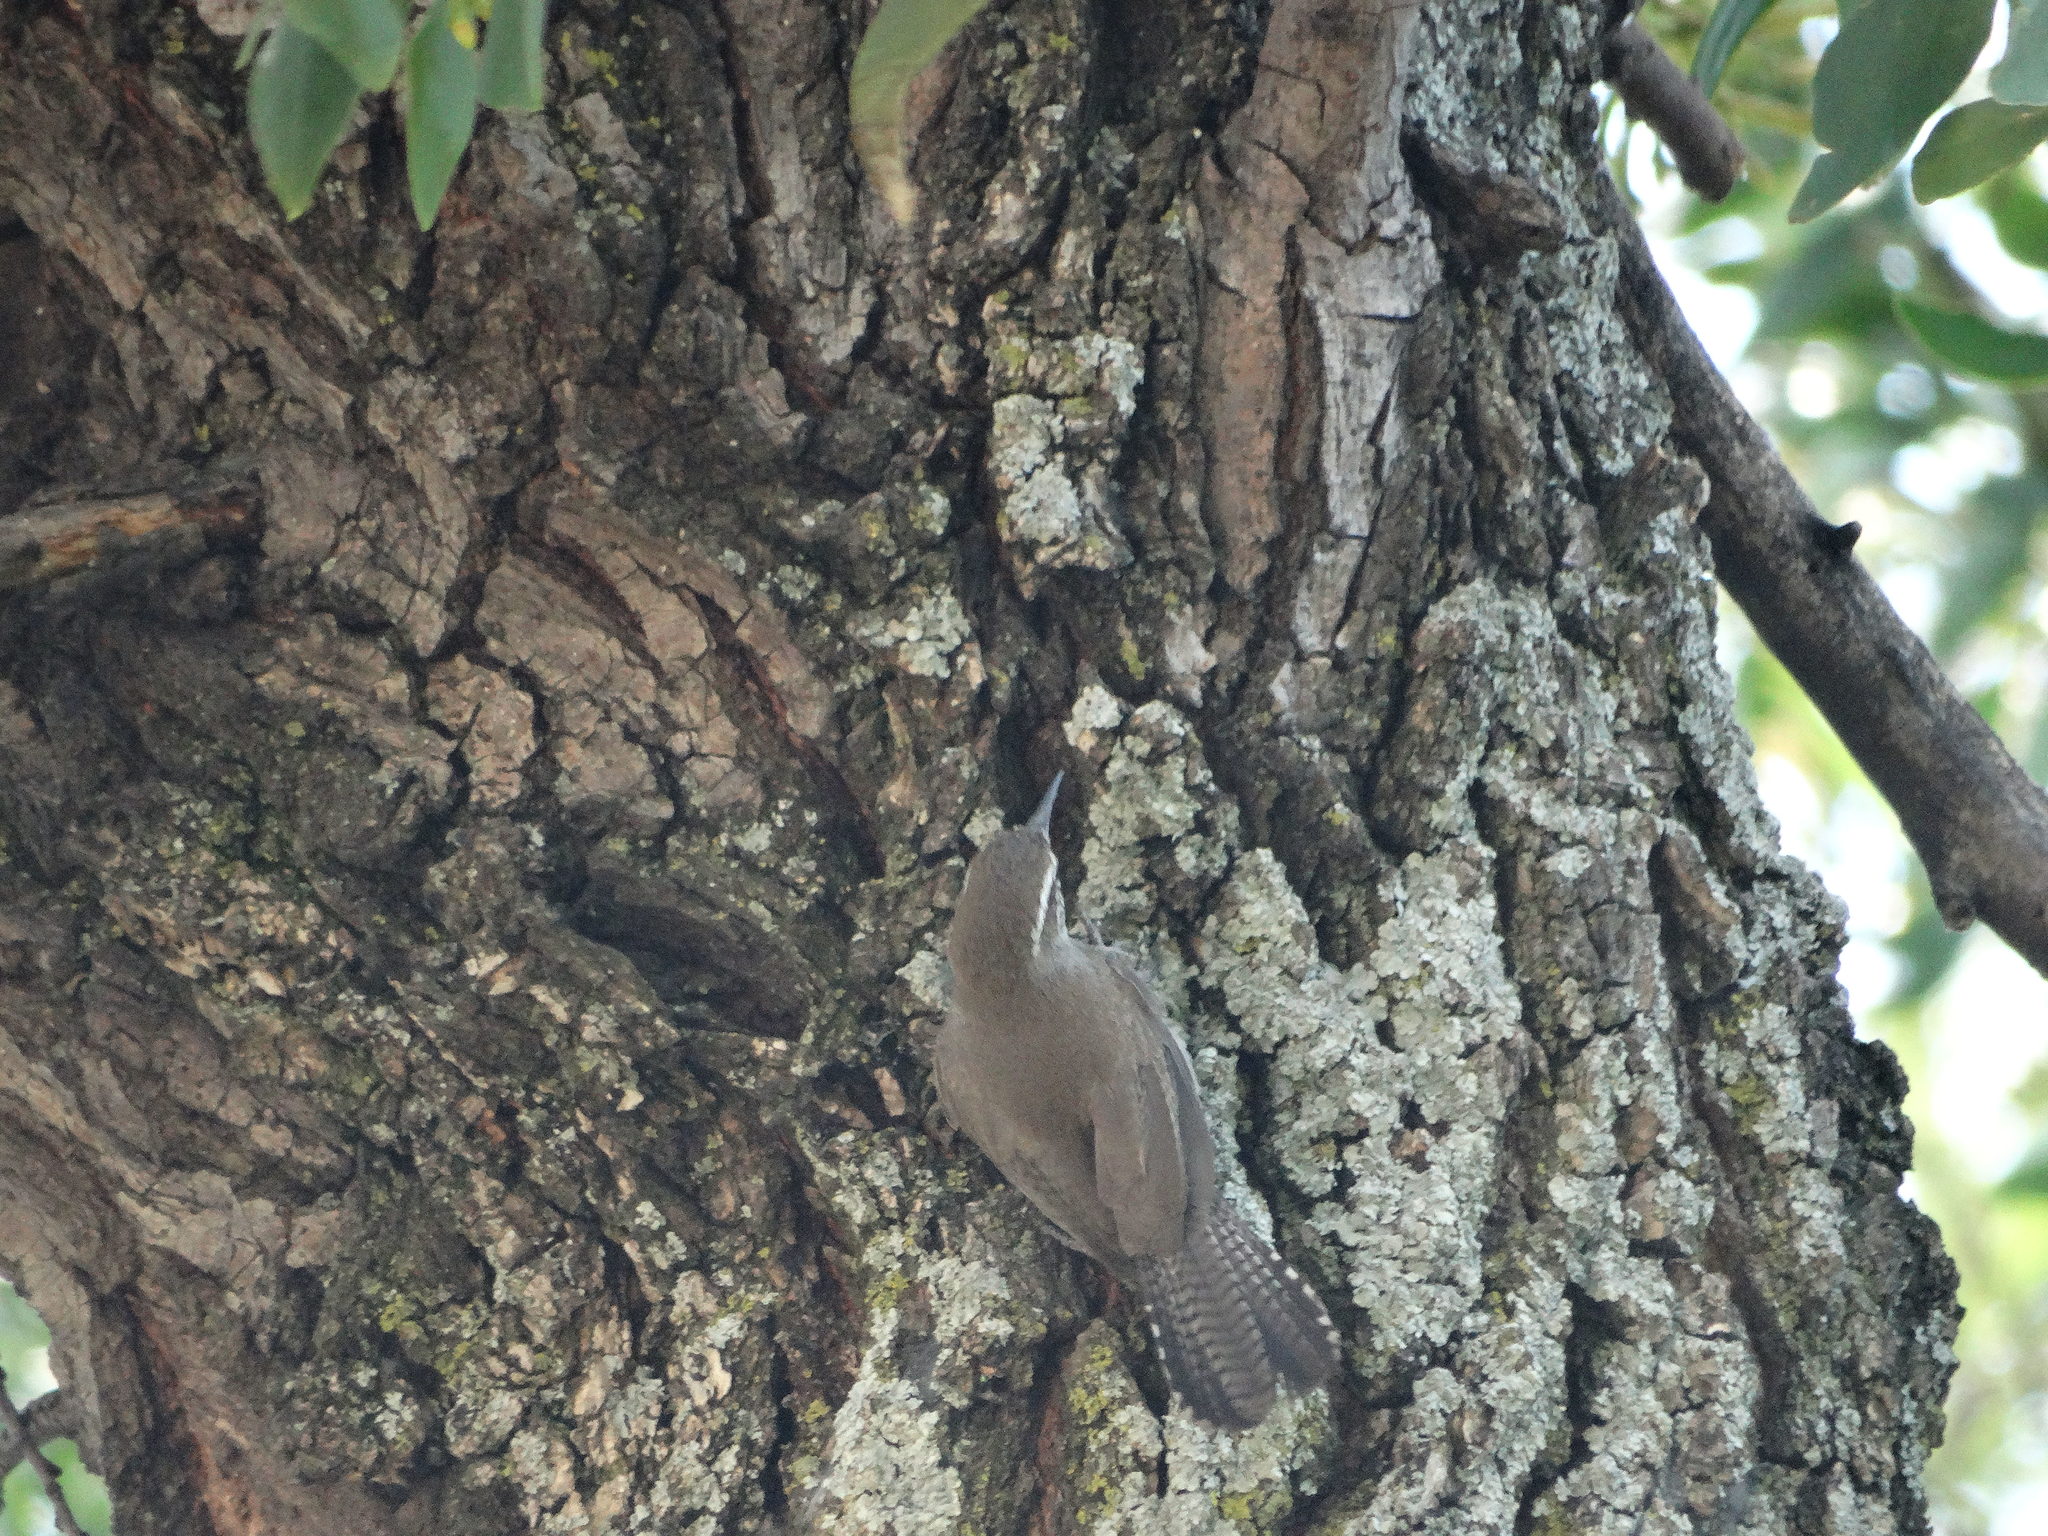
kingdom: Animalia
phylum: Chordata
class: Aves
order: Passeriformes
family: Troglodytidae
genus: Thryomanes
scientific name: Thryomanes bewickii
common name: Bewick's wren
